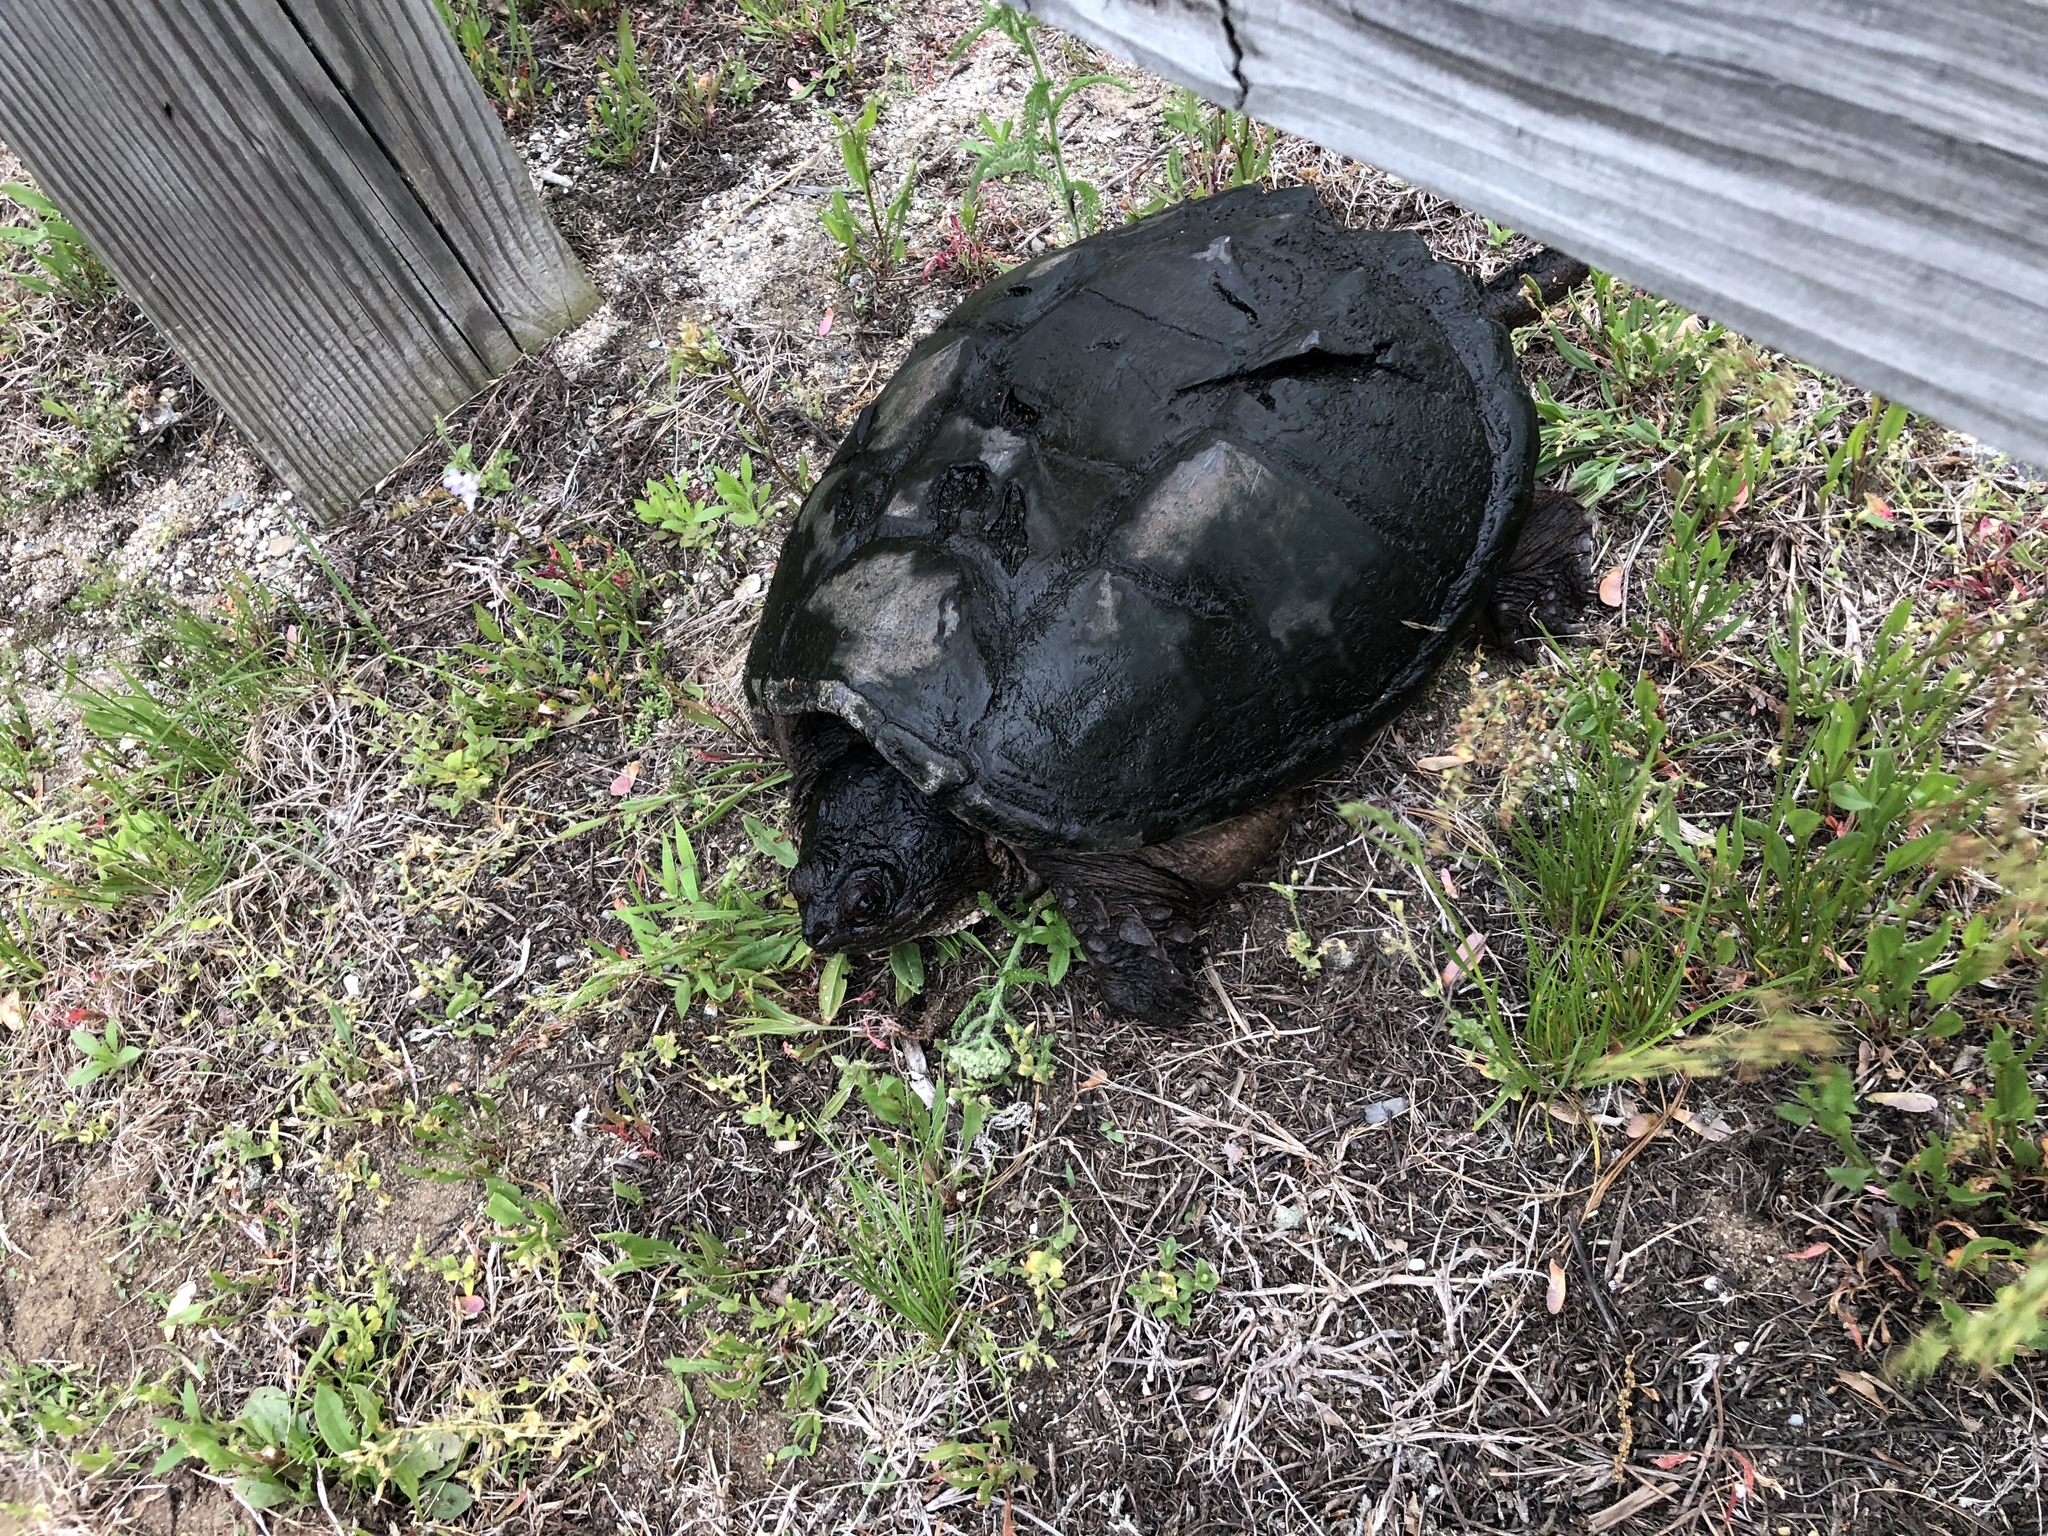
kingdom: Animalia
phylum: Chordata
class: Testudines
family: Chelydridae
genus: Chelydra
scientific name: Chelydra serpentina
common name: Common snapping turtle
